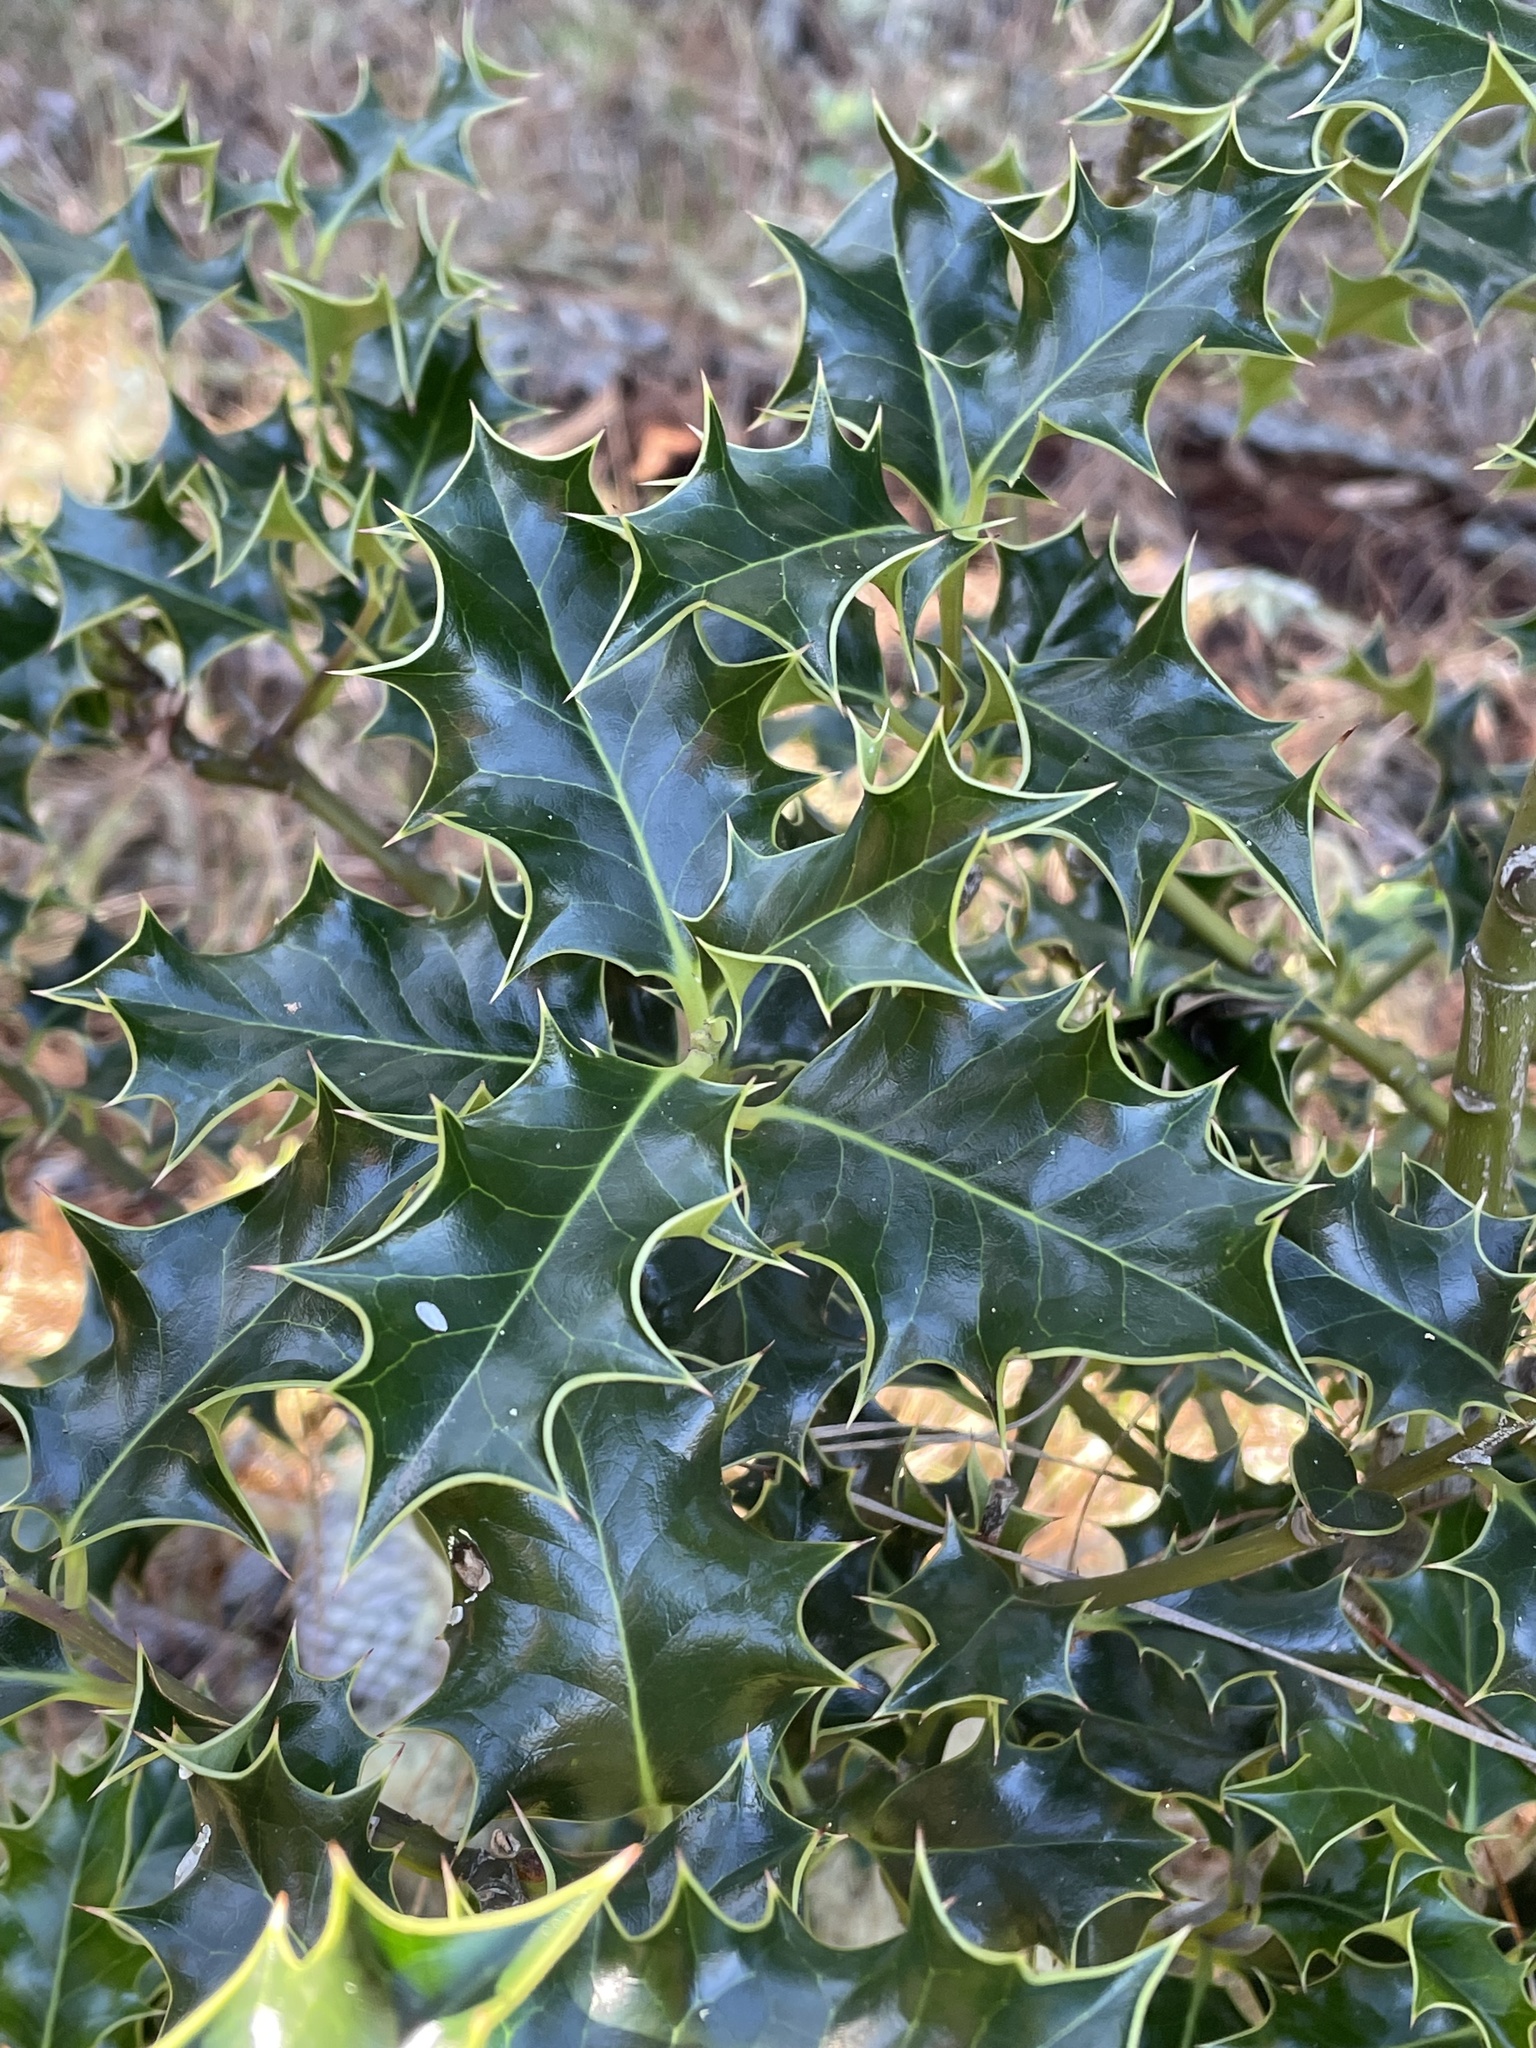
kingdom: Plantae
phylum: Tracheophyta
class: Magnoliopsida
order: Aquifoliales
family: Aquifoliaceae
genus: Ilex
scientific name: Ilex aquifolium
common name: English holly
